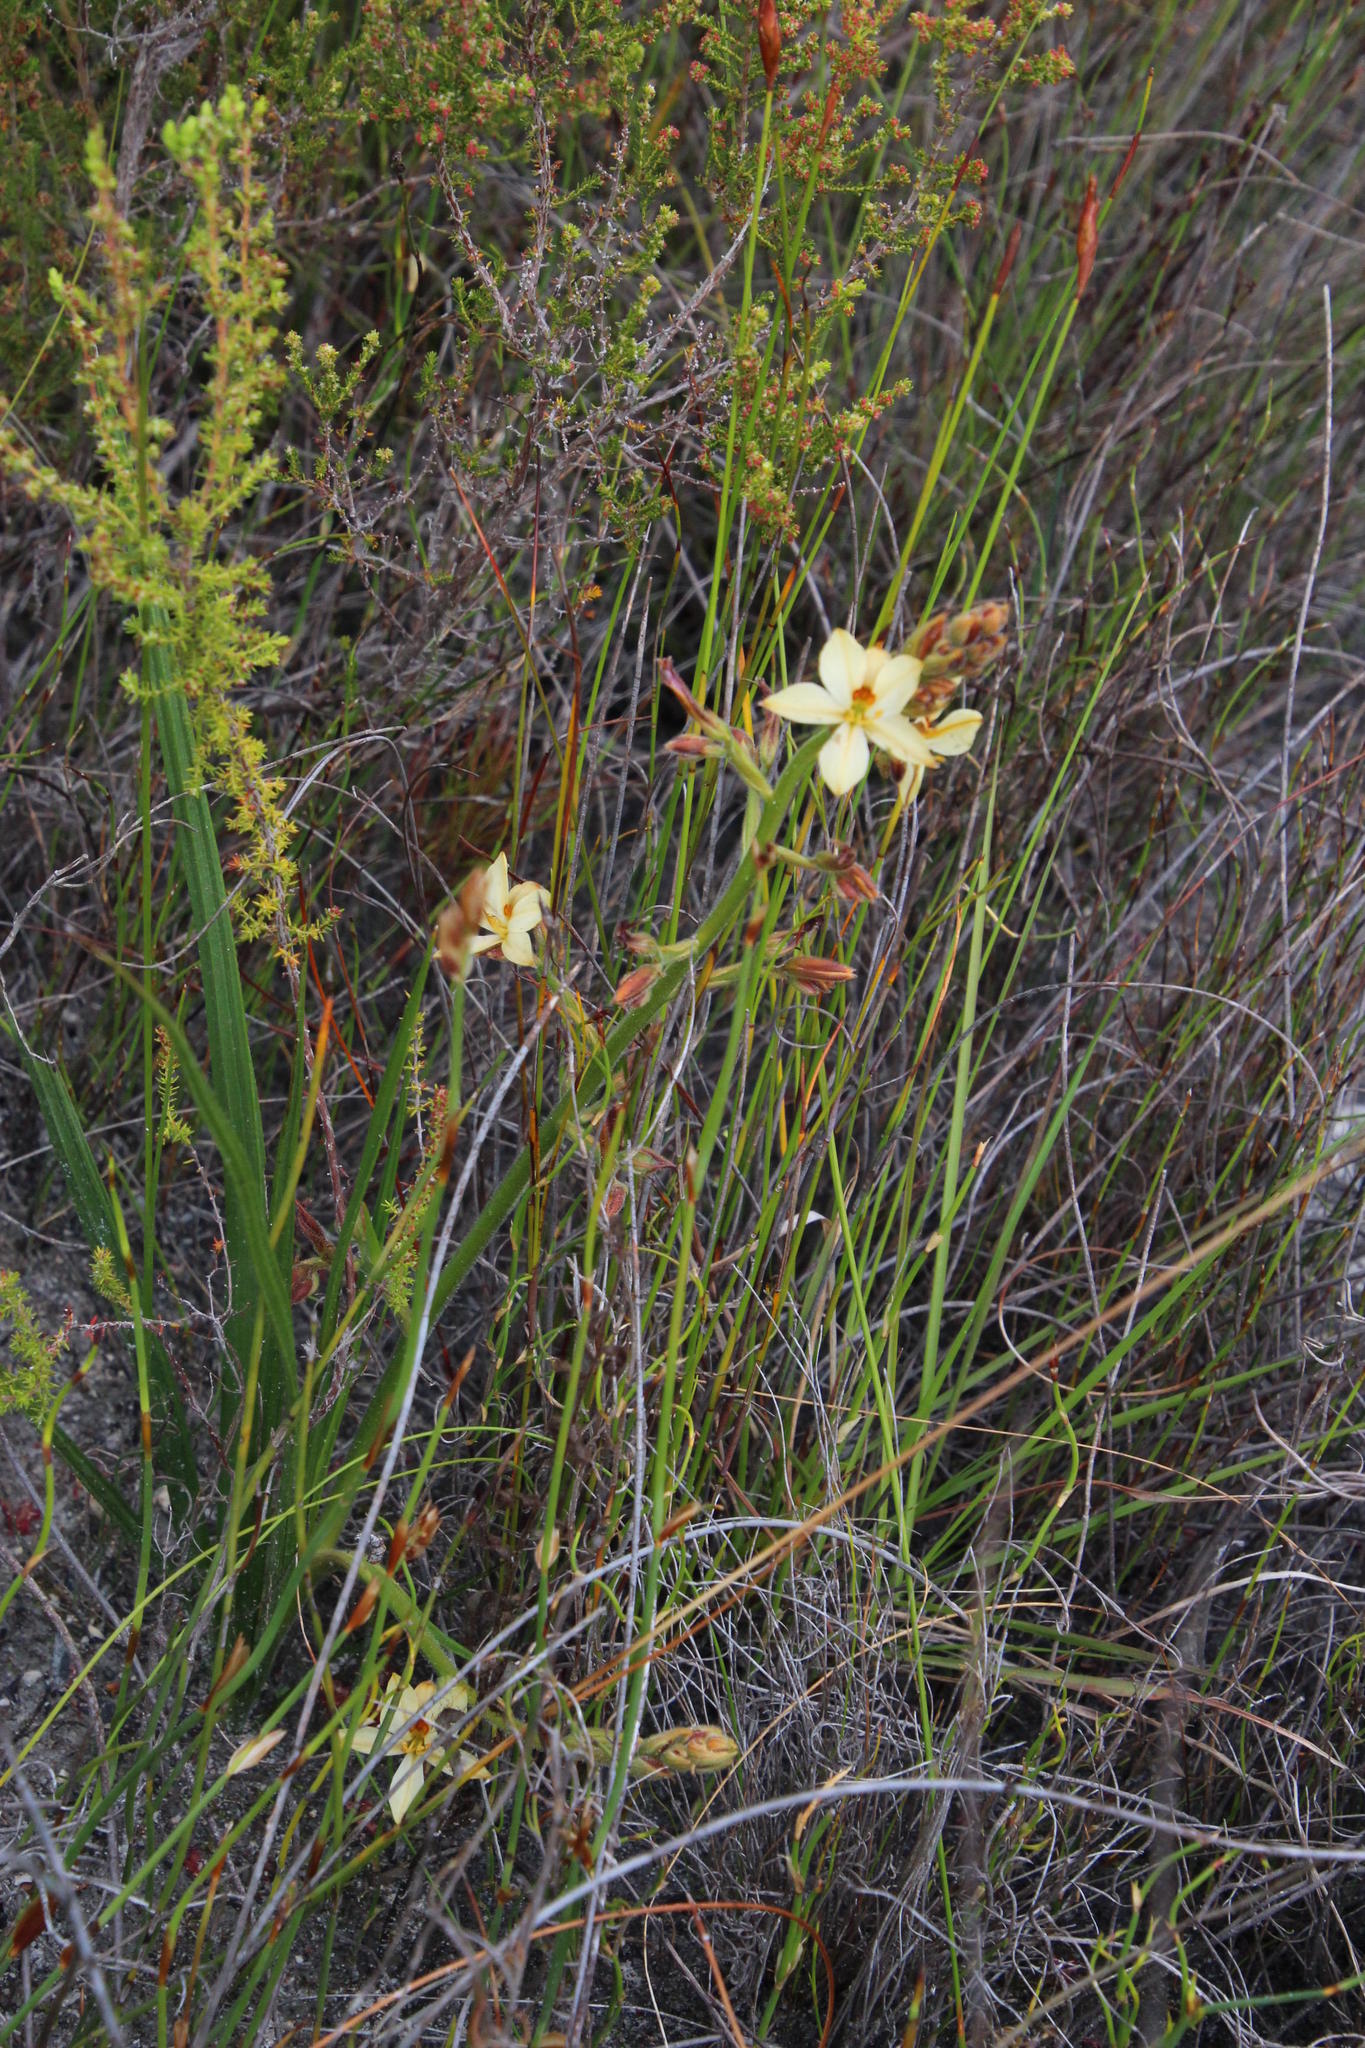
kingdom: Plantae
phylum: Tracheophyta
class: Liliopsida
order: Commelinales
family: Haemodoraceae
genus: Wachendorfia
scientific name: Wachendorfia brachyandra
